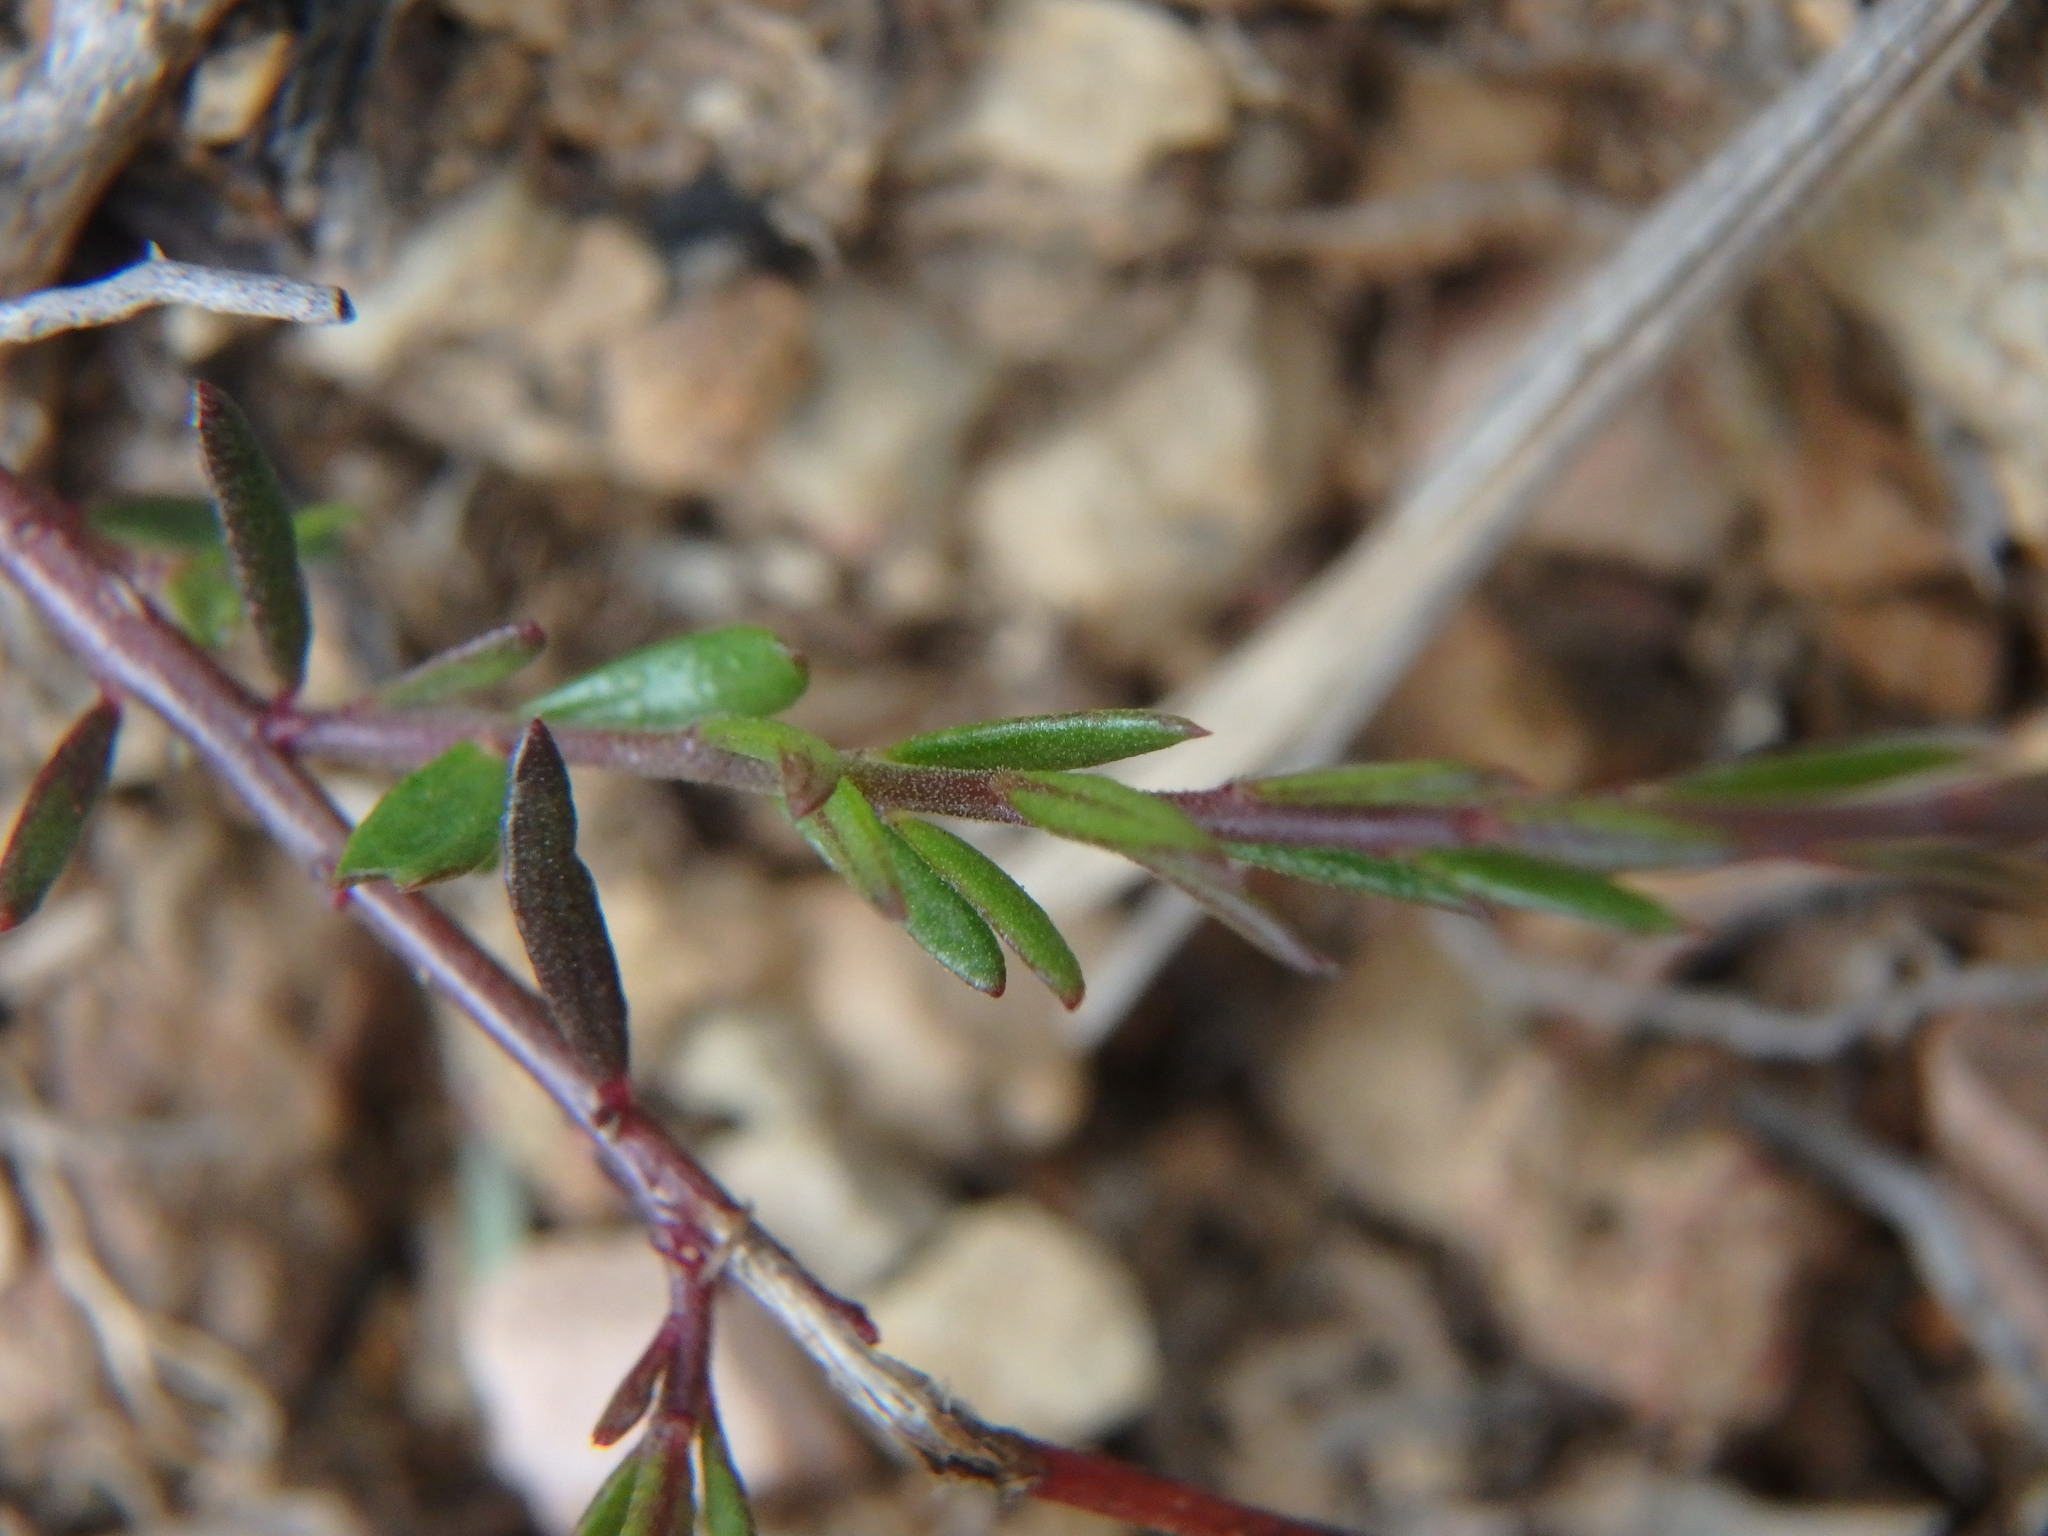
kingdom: Plantae
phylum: Tracheophyta
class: Magnoliopsida
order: Fabales
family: Polygalaceae
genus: Polygala
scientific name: Polygala paniculata
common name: Orosne
